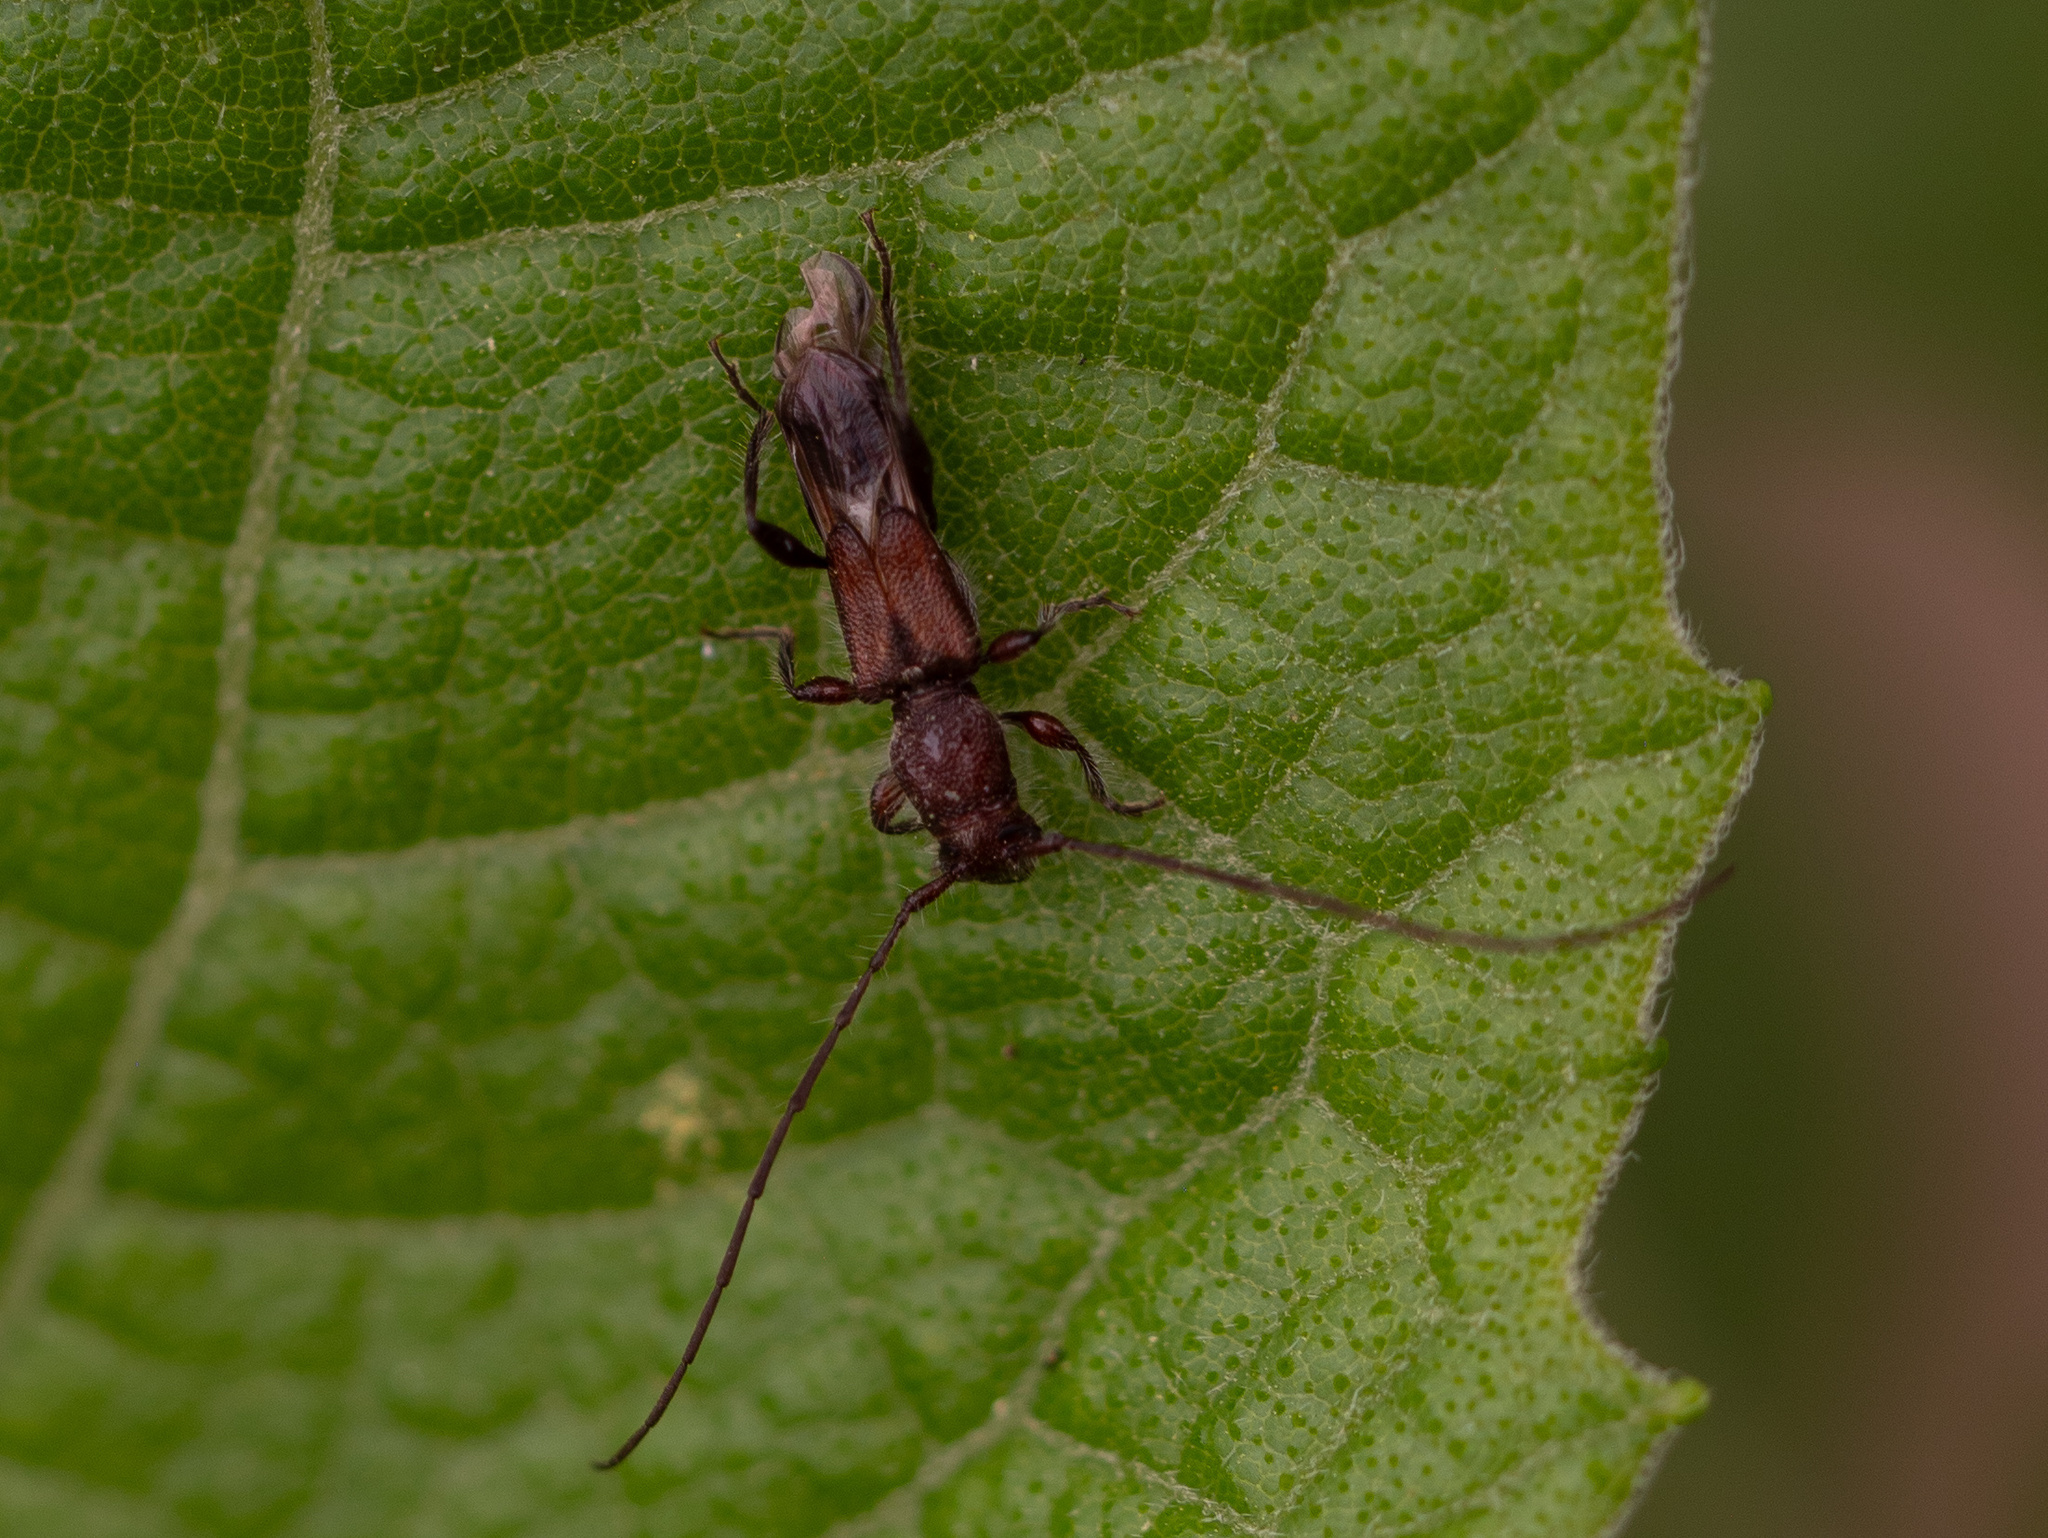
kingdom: Animalia
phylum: Arthropoda
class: Insecta
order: Coleoptera
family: Cerambycidae
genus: Molorchus
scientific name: Molorchus bimaculatus
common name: Bimaculate longhorn beetle
